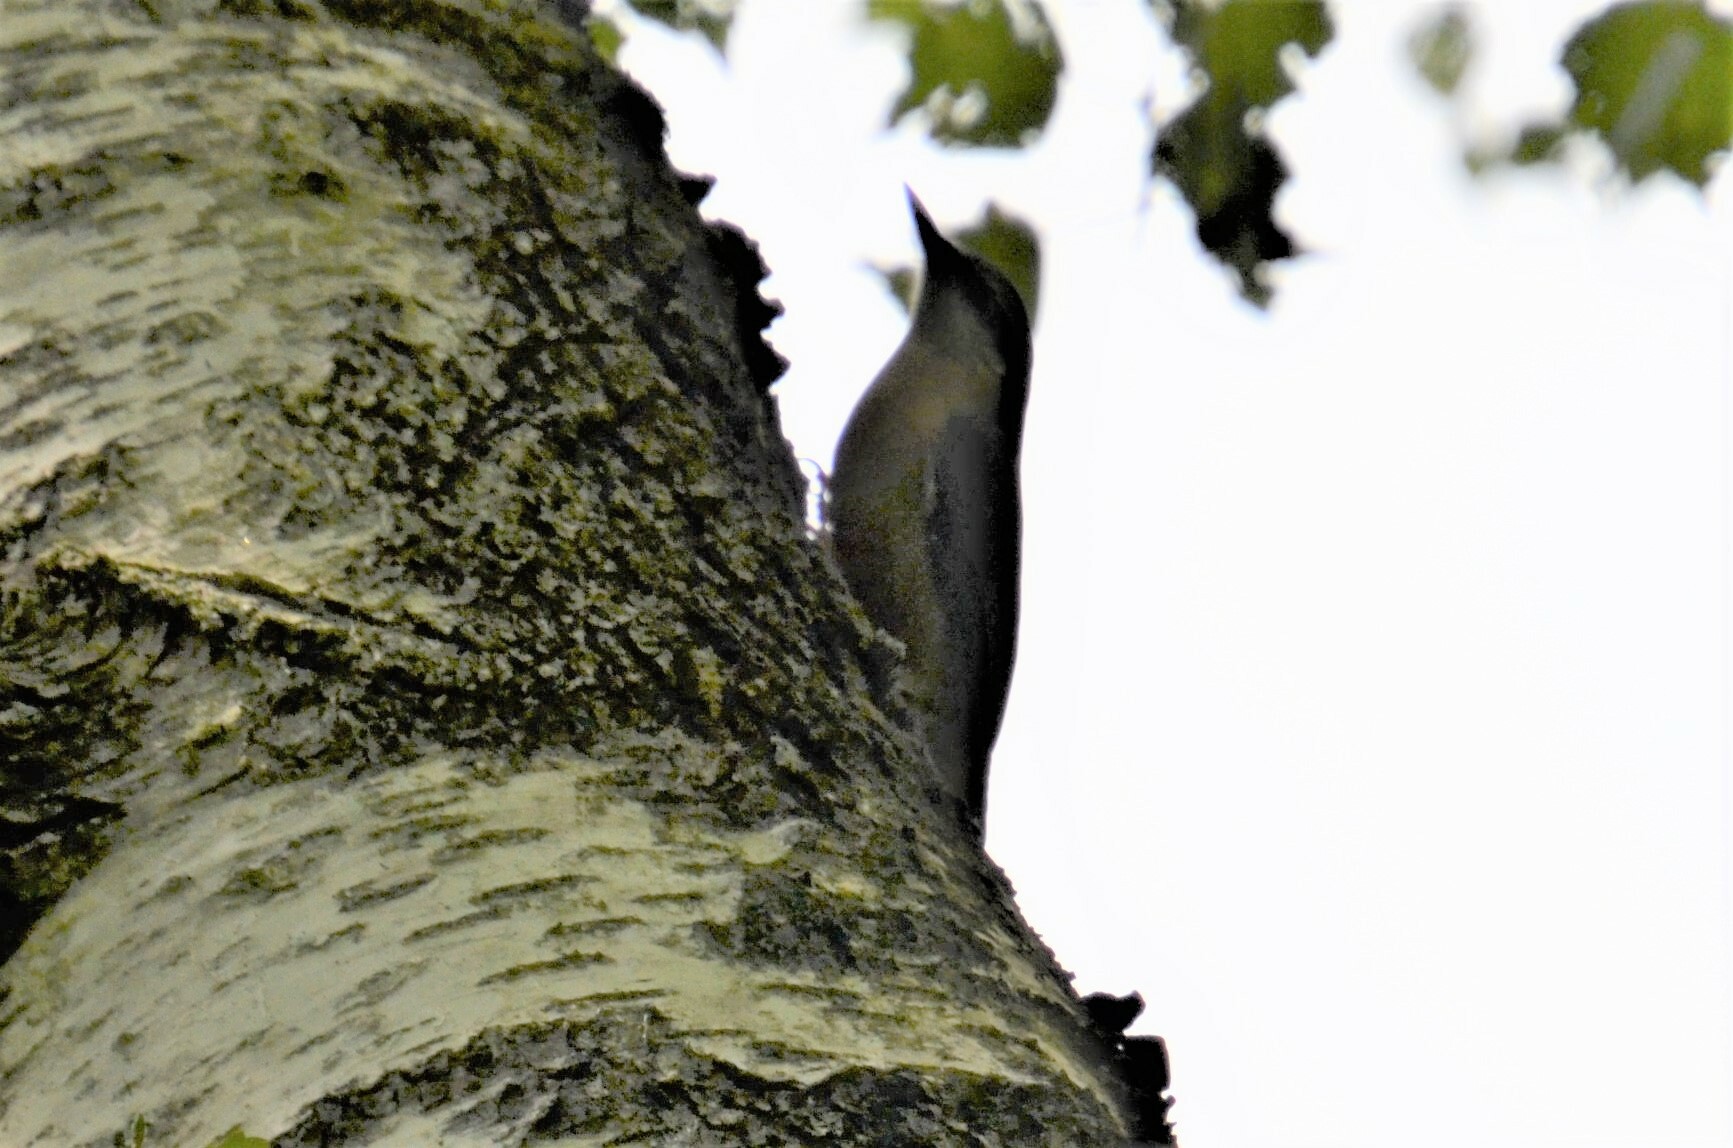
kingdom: Animalia
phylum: Chordata
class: Aves
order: Passeriformes
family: Sittidae
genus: Sitta
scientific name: Sitta europaea
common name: Eurasian nuthatch
